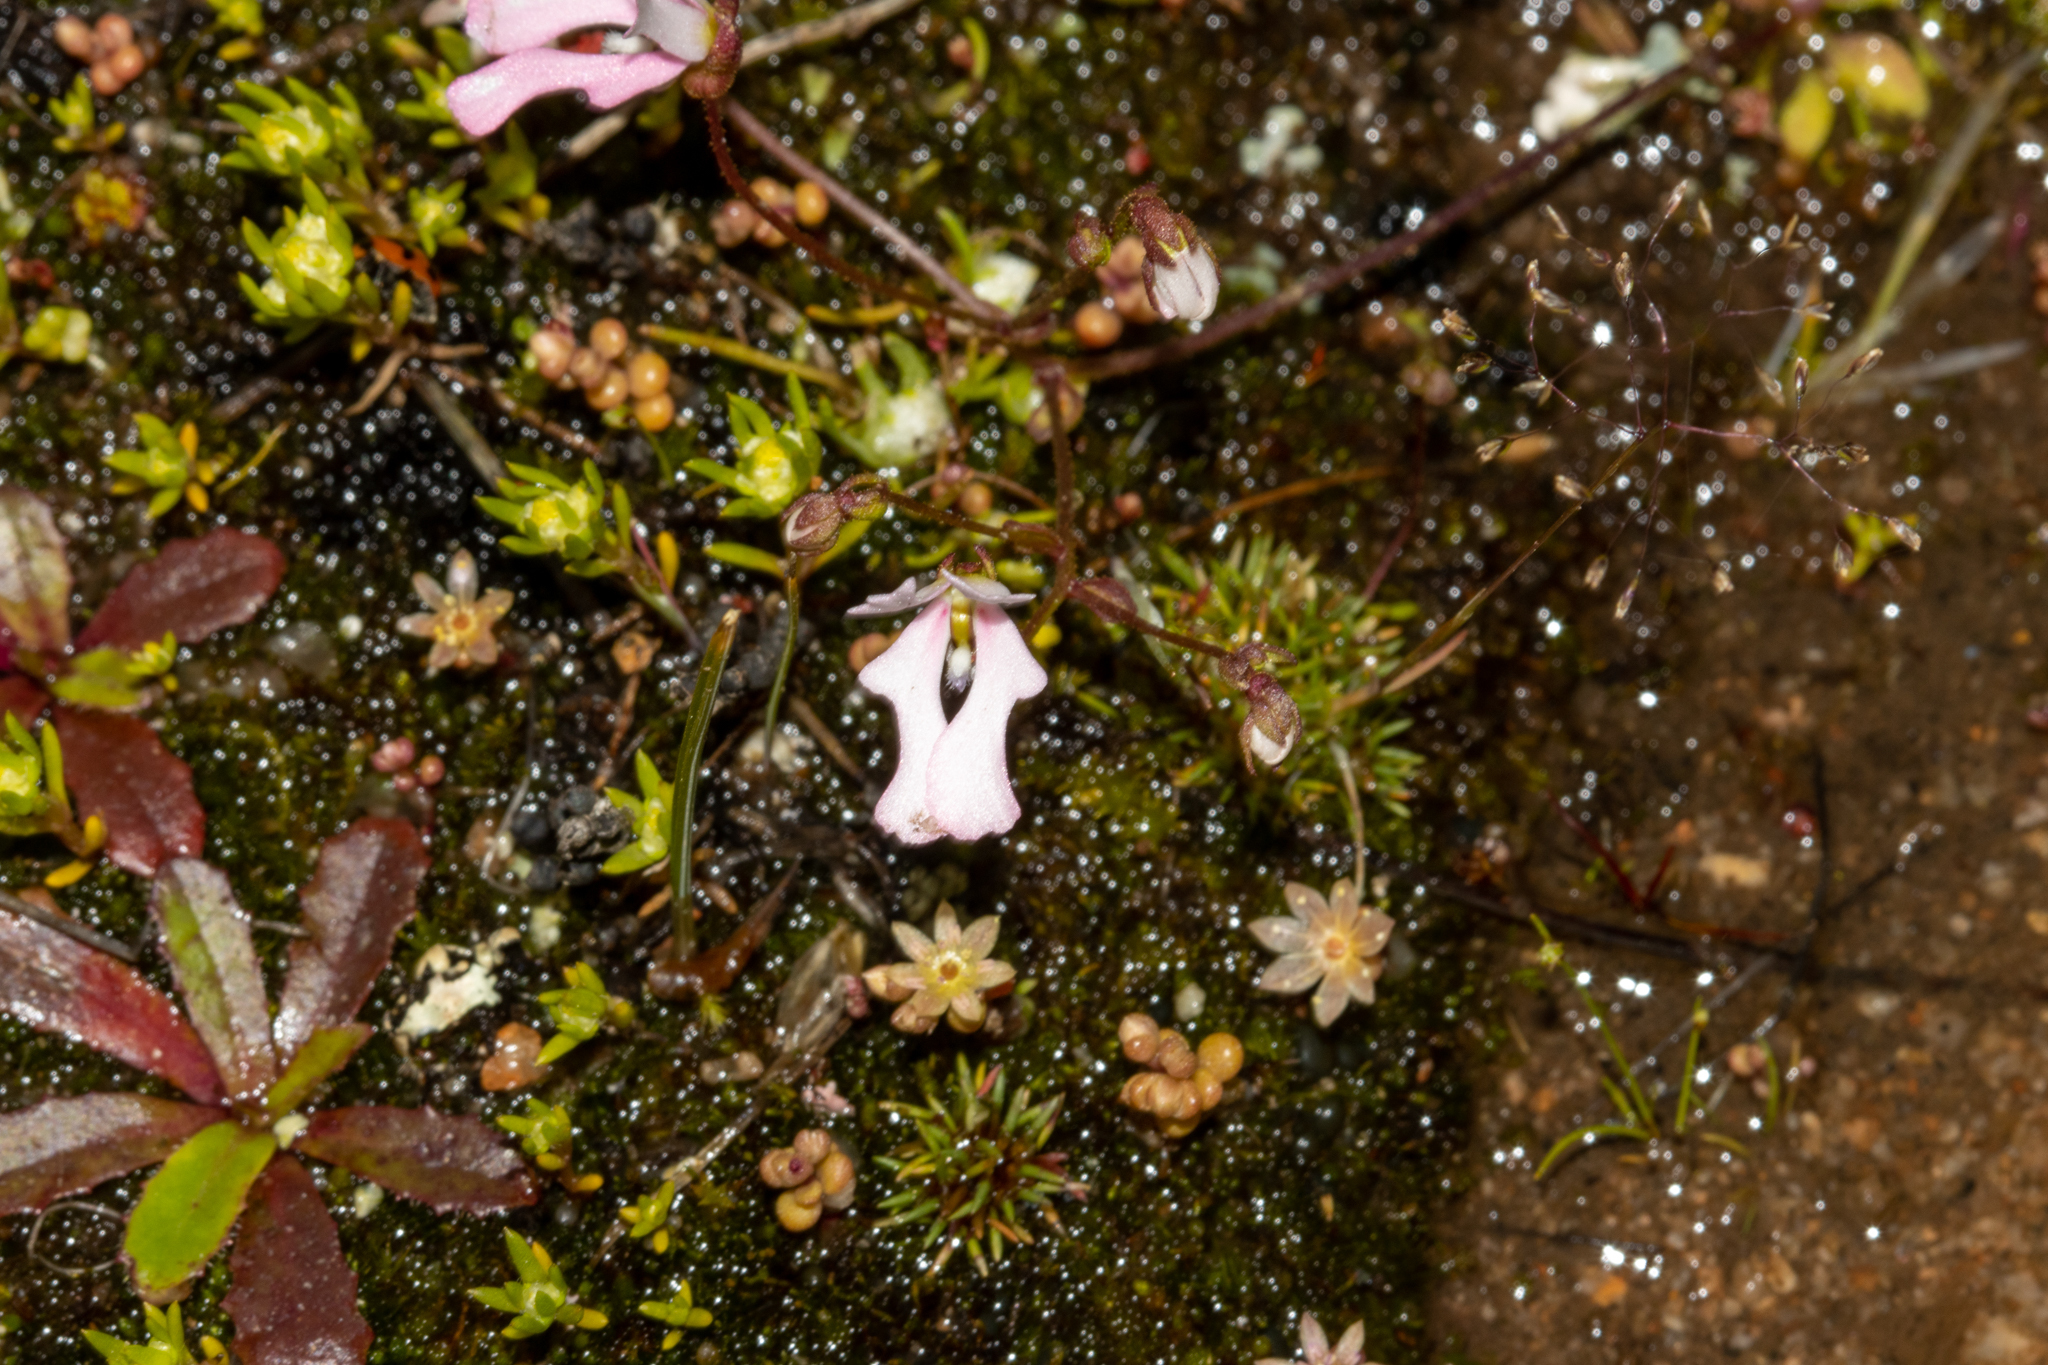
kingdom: Plantae
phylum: Tracheophyta
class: Magnoliopsida
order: Asterales
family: Stylidiaceae
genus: Stylidium
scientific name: Stylidium ecorne
